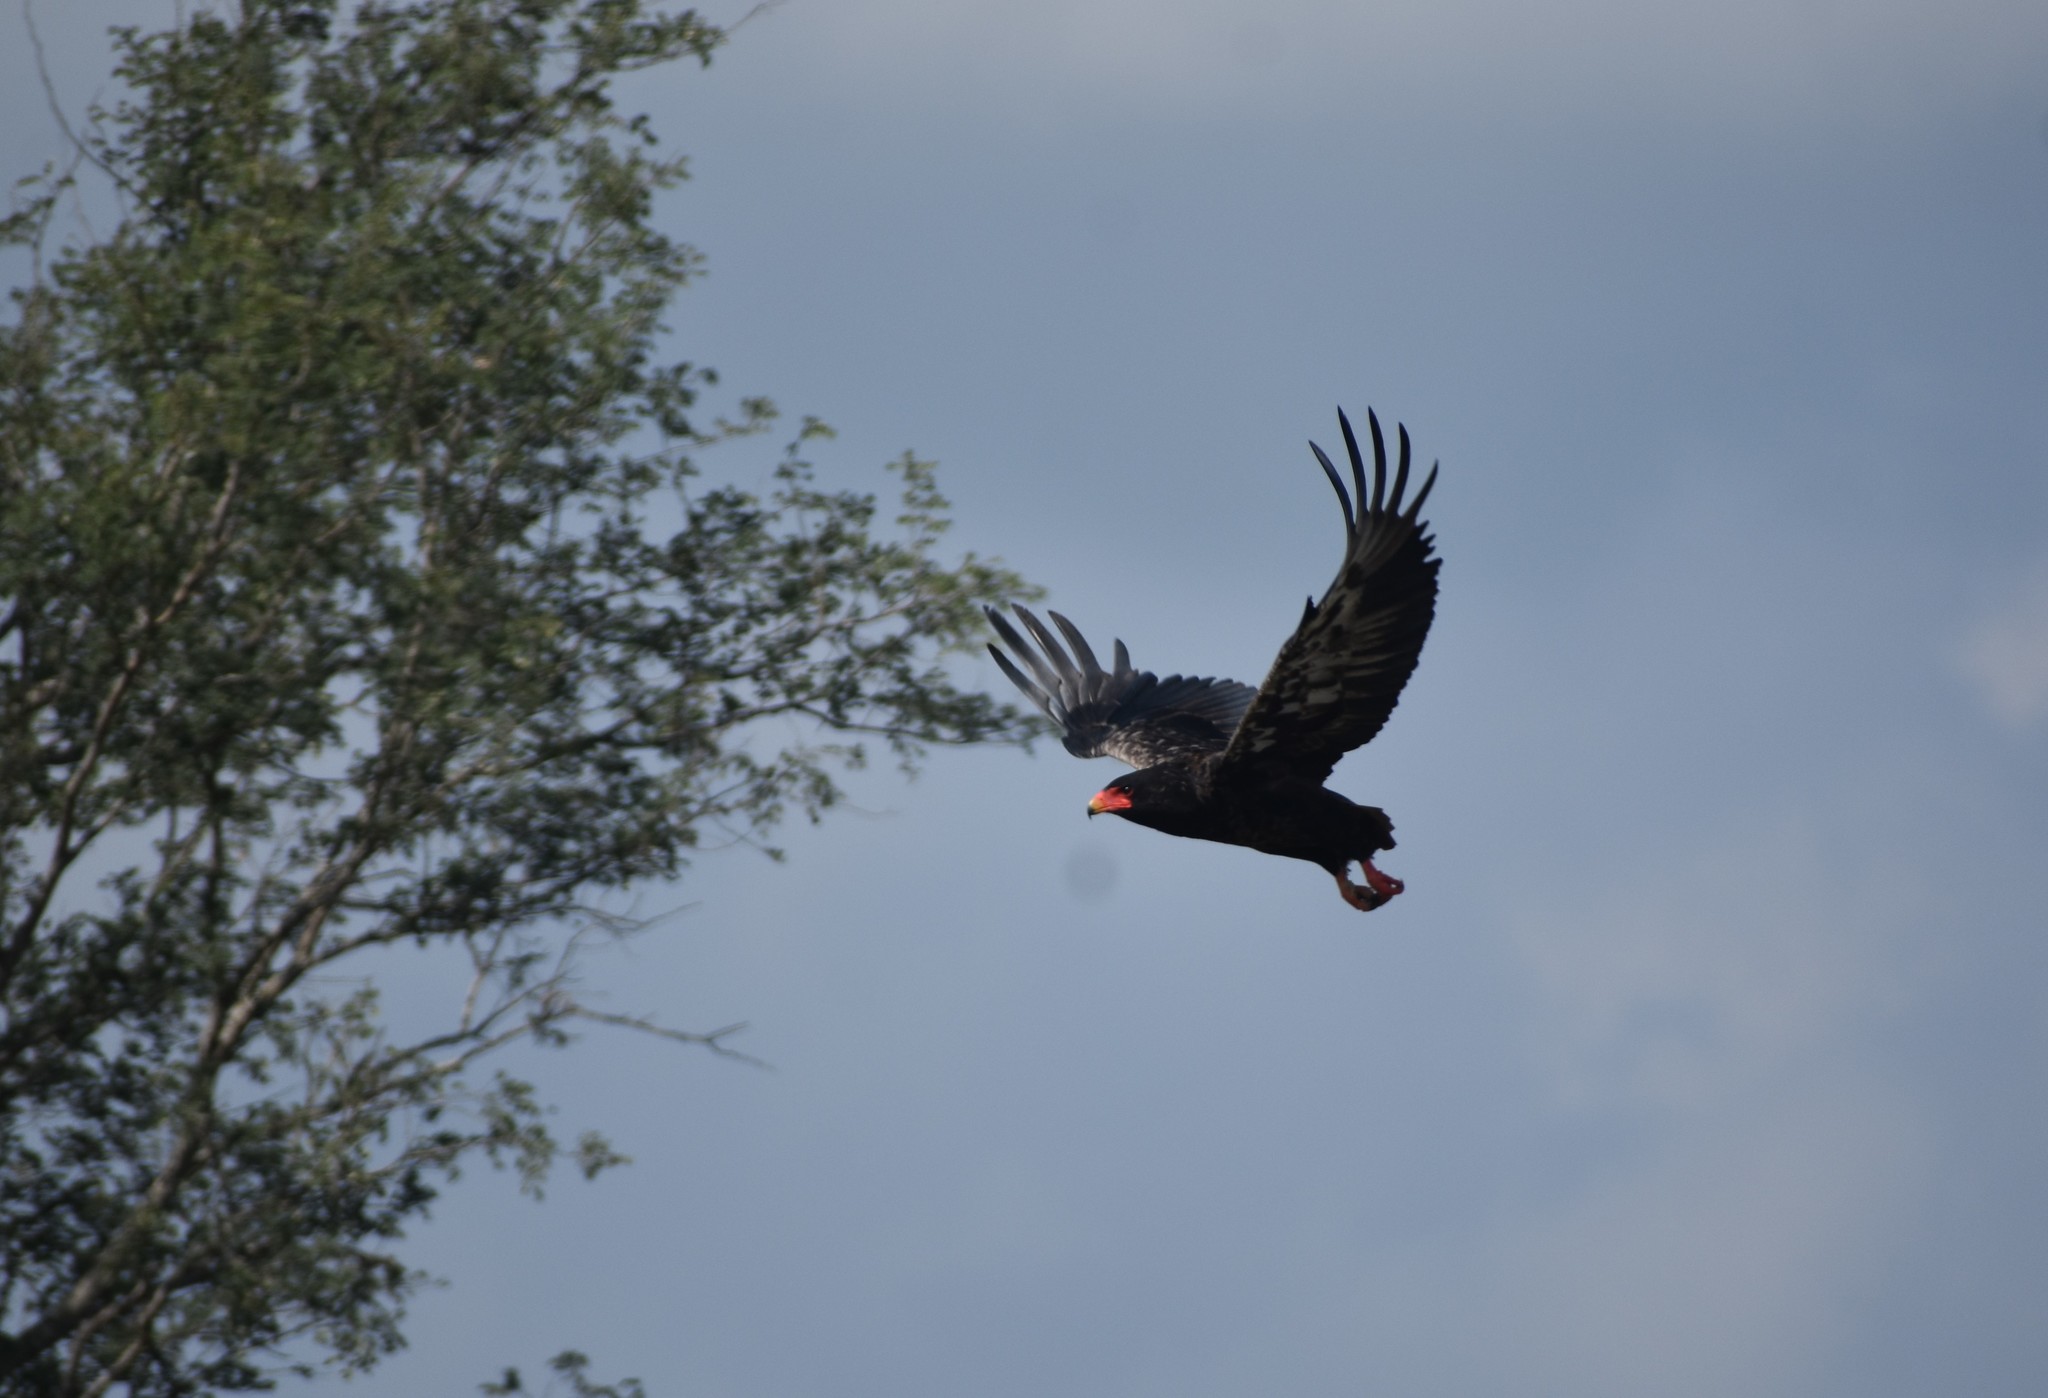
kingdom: Animalia
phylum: Chordata
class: Aves
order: Accipitriformes
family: Accipitridae
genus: Terathopius
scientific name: Terathopius ecaudatus
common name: Bateleur
